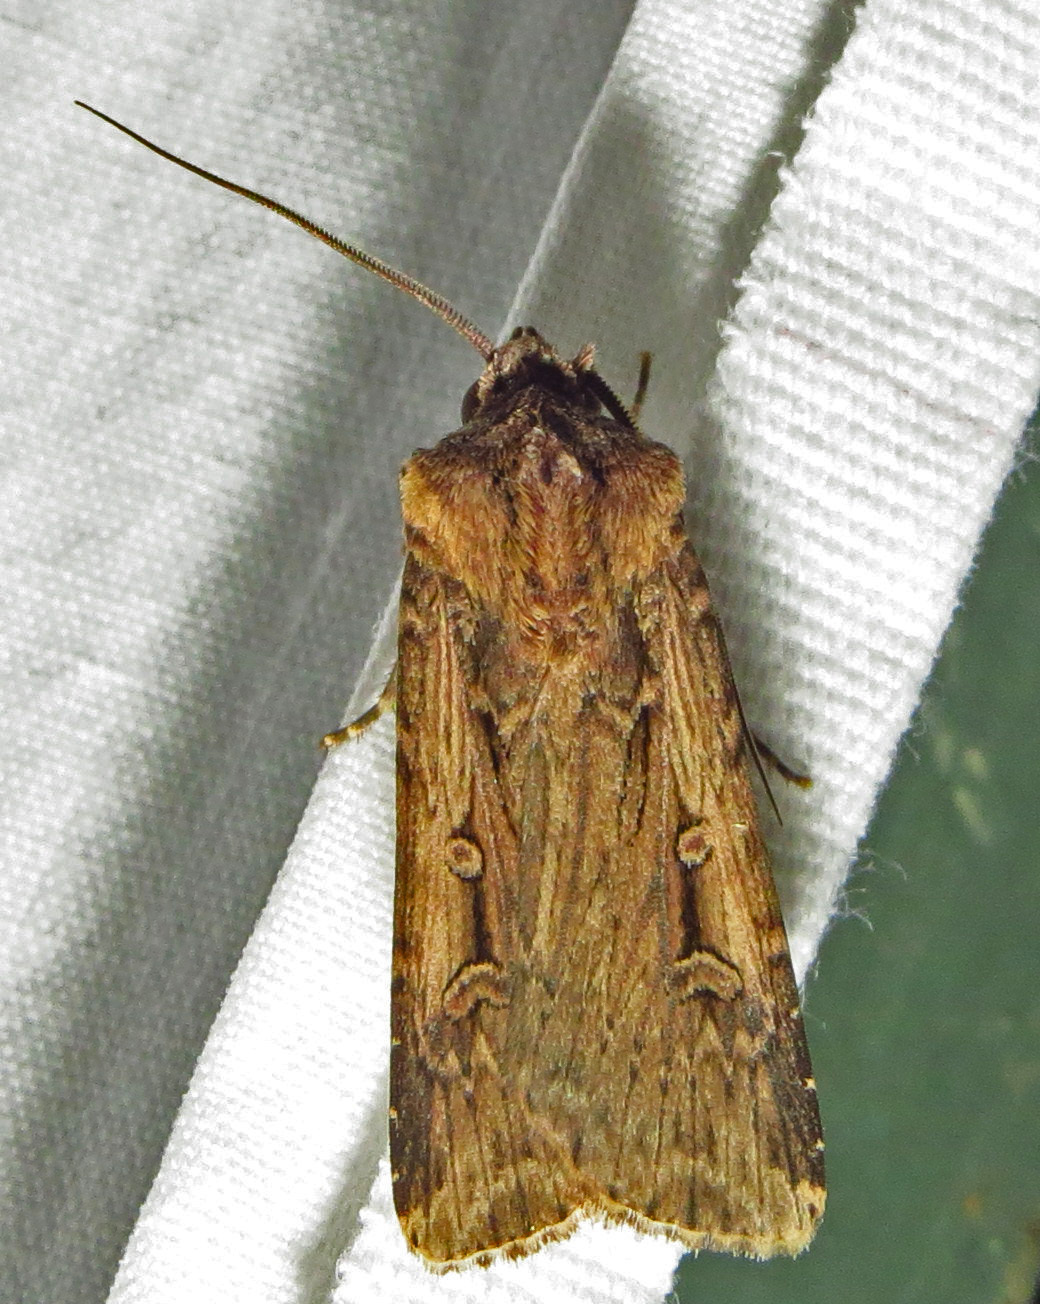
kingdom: Animalia
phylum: Arthropoda
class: Insecta
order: Lepidoptera
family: Noctuidae
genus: Feltia
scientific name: Feltia subterranea
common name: Granulate cutworm
